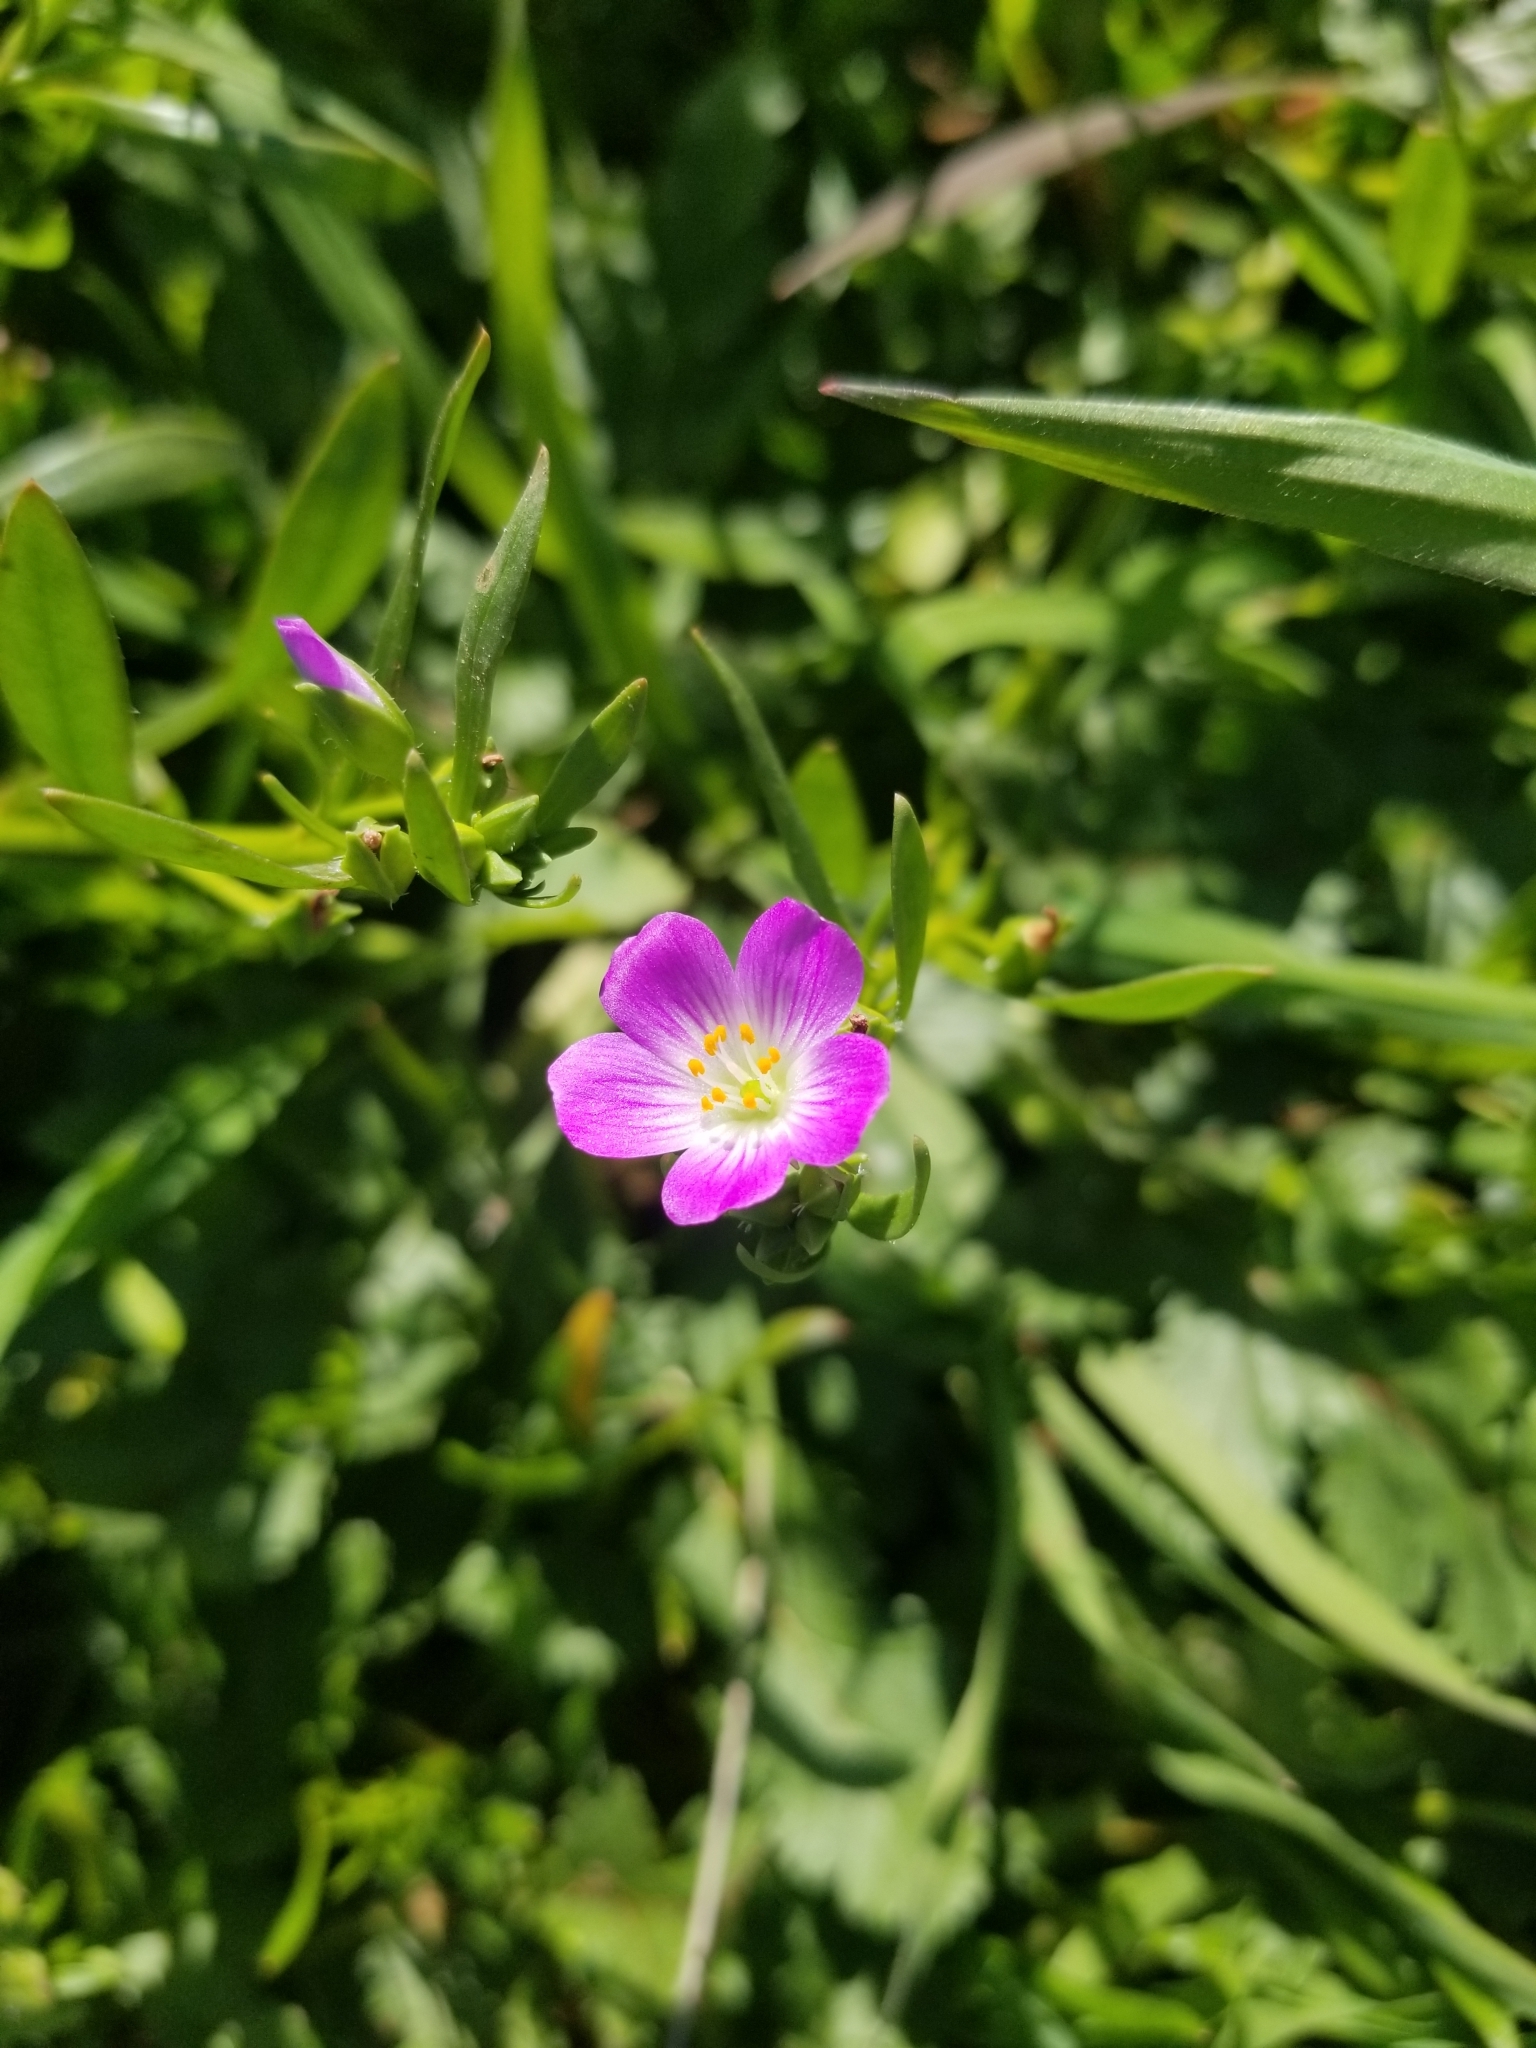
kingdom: Plantae
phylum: Tracheophyta
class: Magnoliopsida
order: Caryophyllales
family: Montiaceae
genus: Calandrinia
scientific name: Calandrinia menziesii
